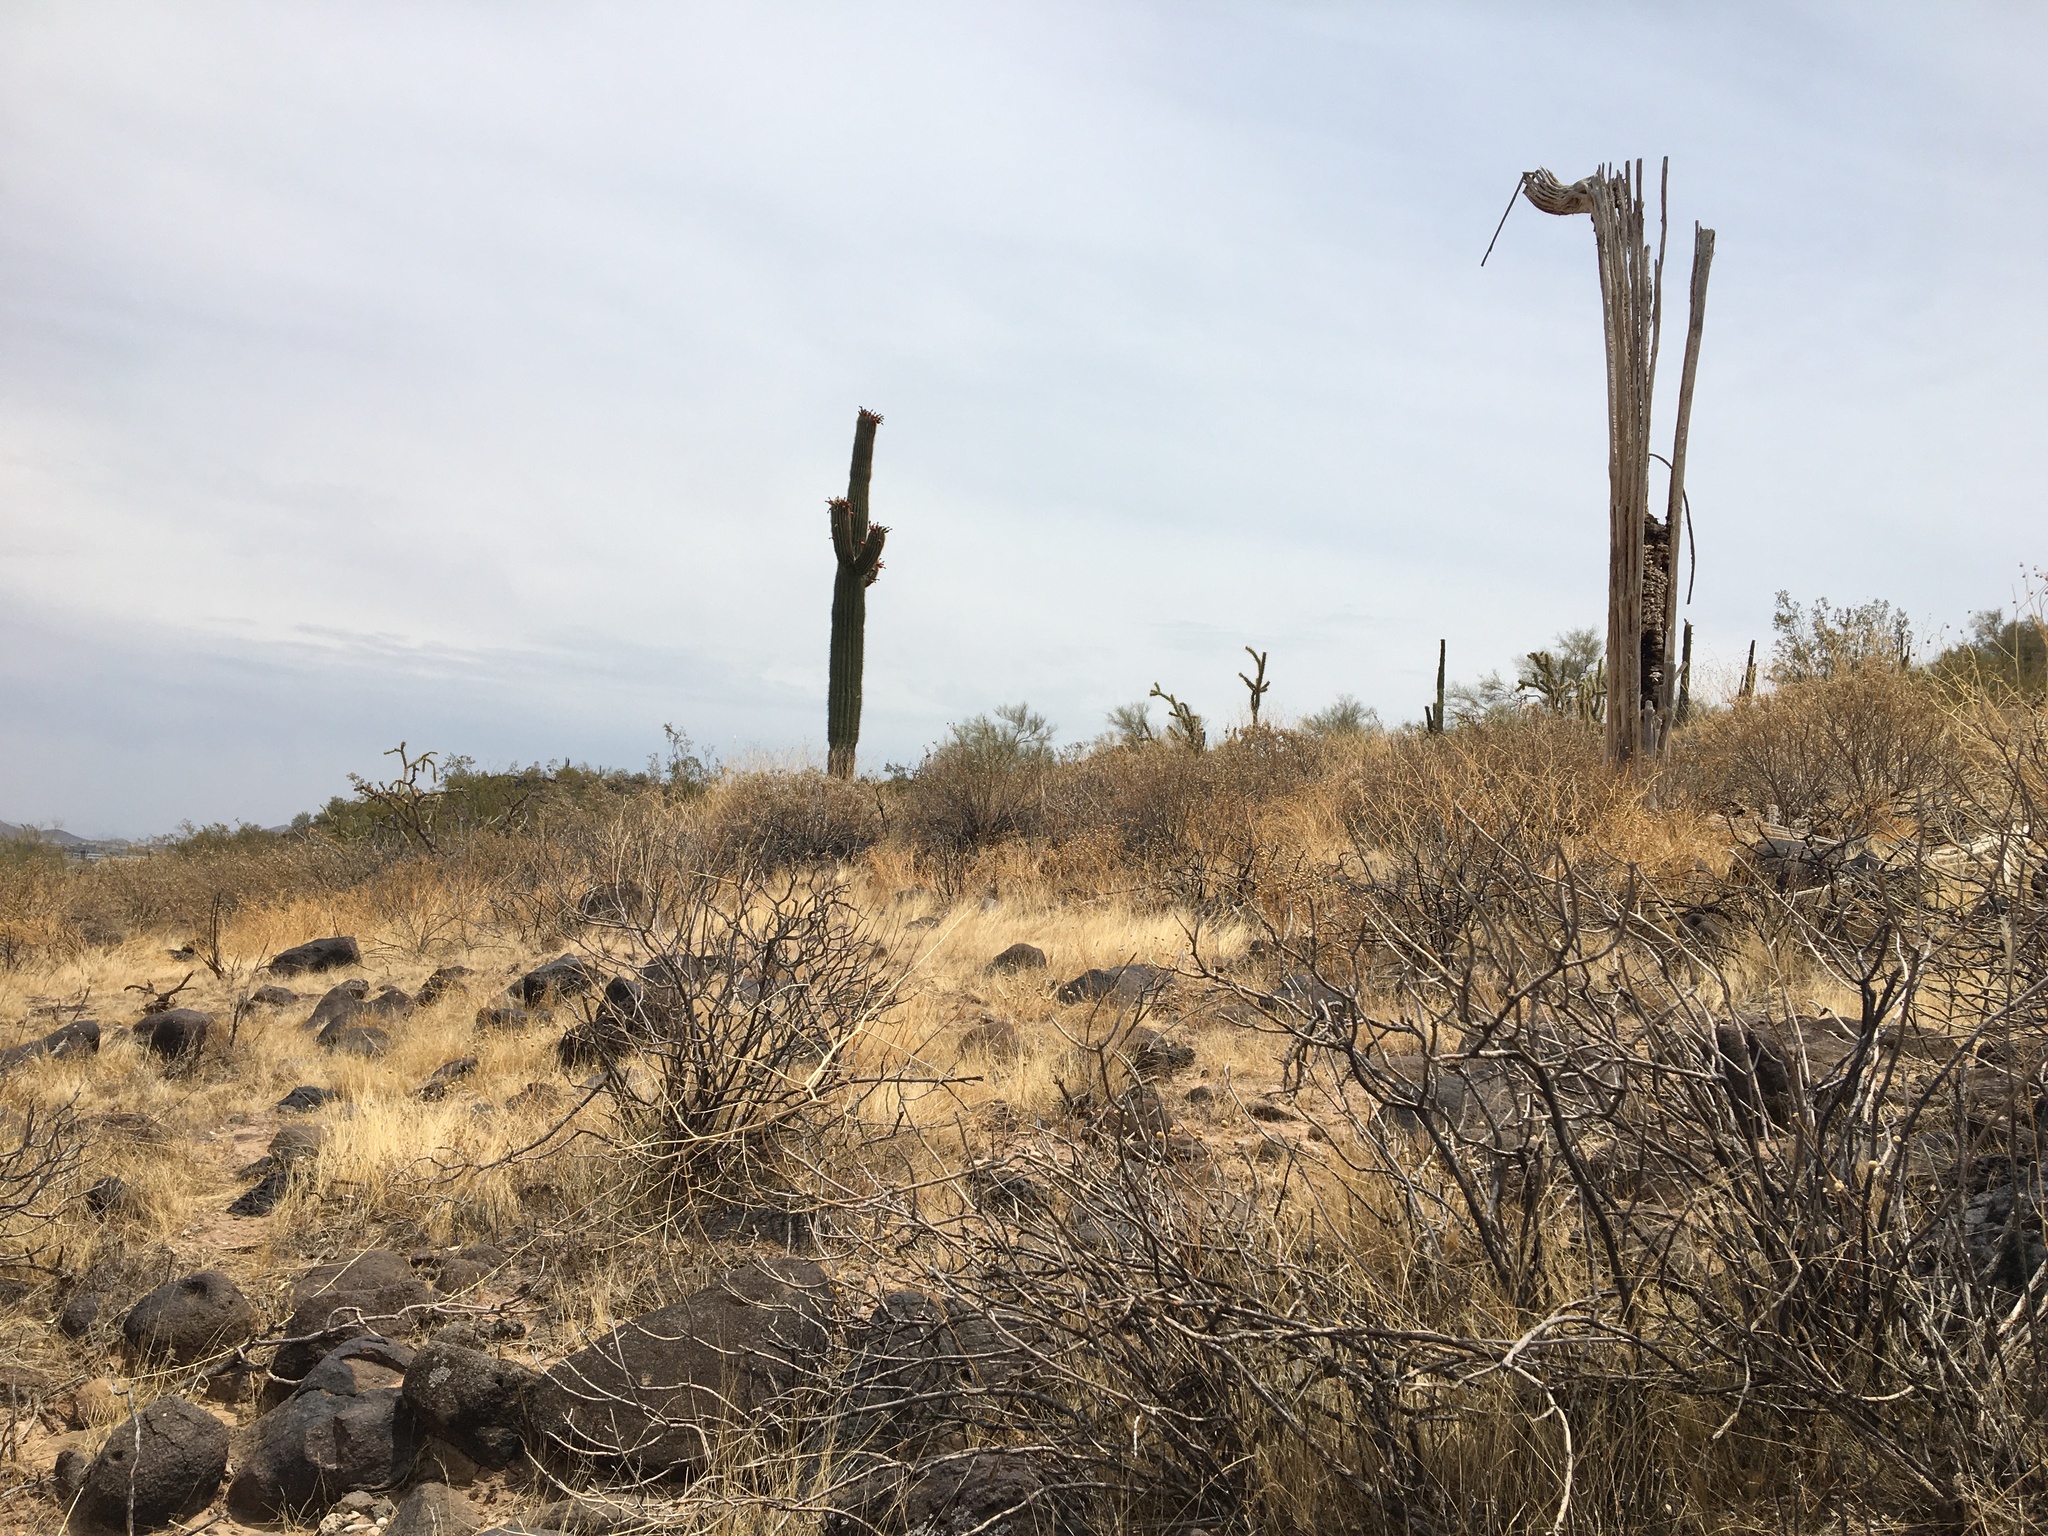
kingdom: Plantae
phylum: Tracheophyta
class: Magnoliopsida
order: Caryophyllales
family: Cactaceae
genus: Carnegiea
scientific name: Carnegiea gigantea
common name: Saguaro
